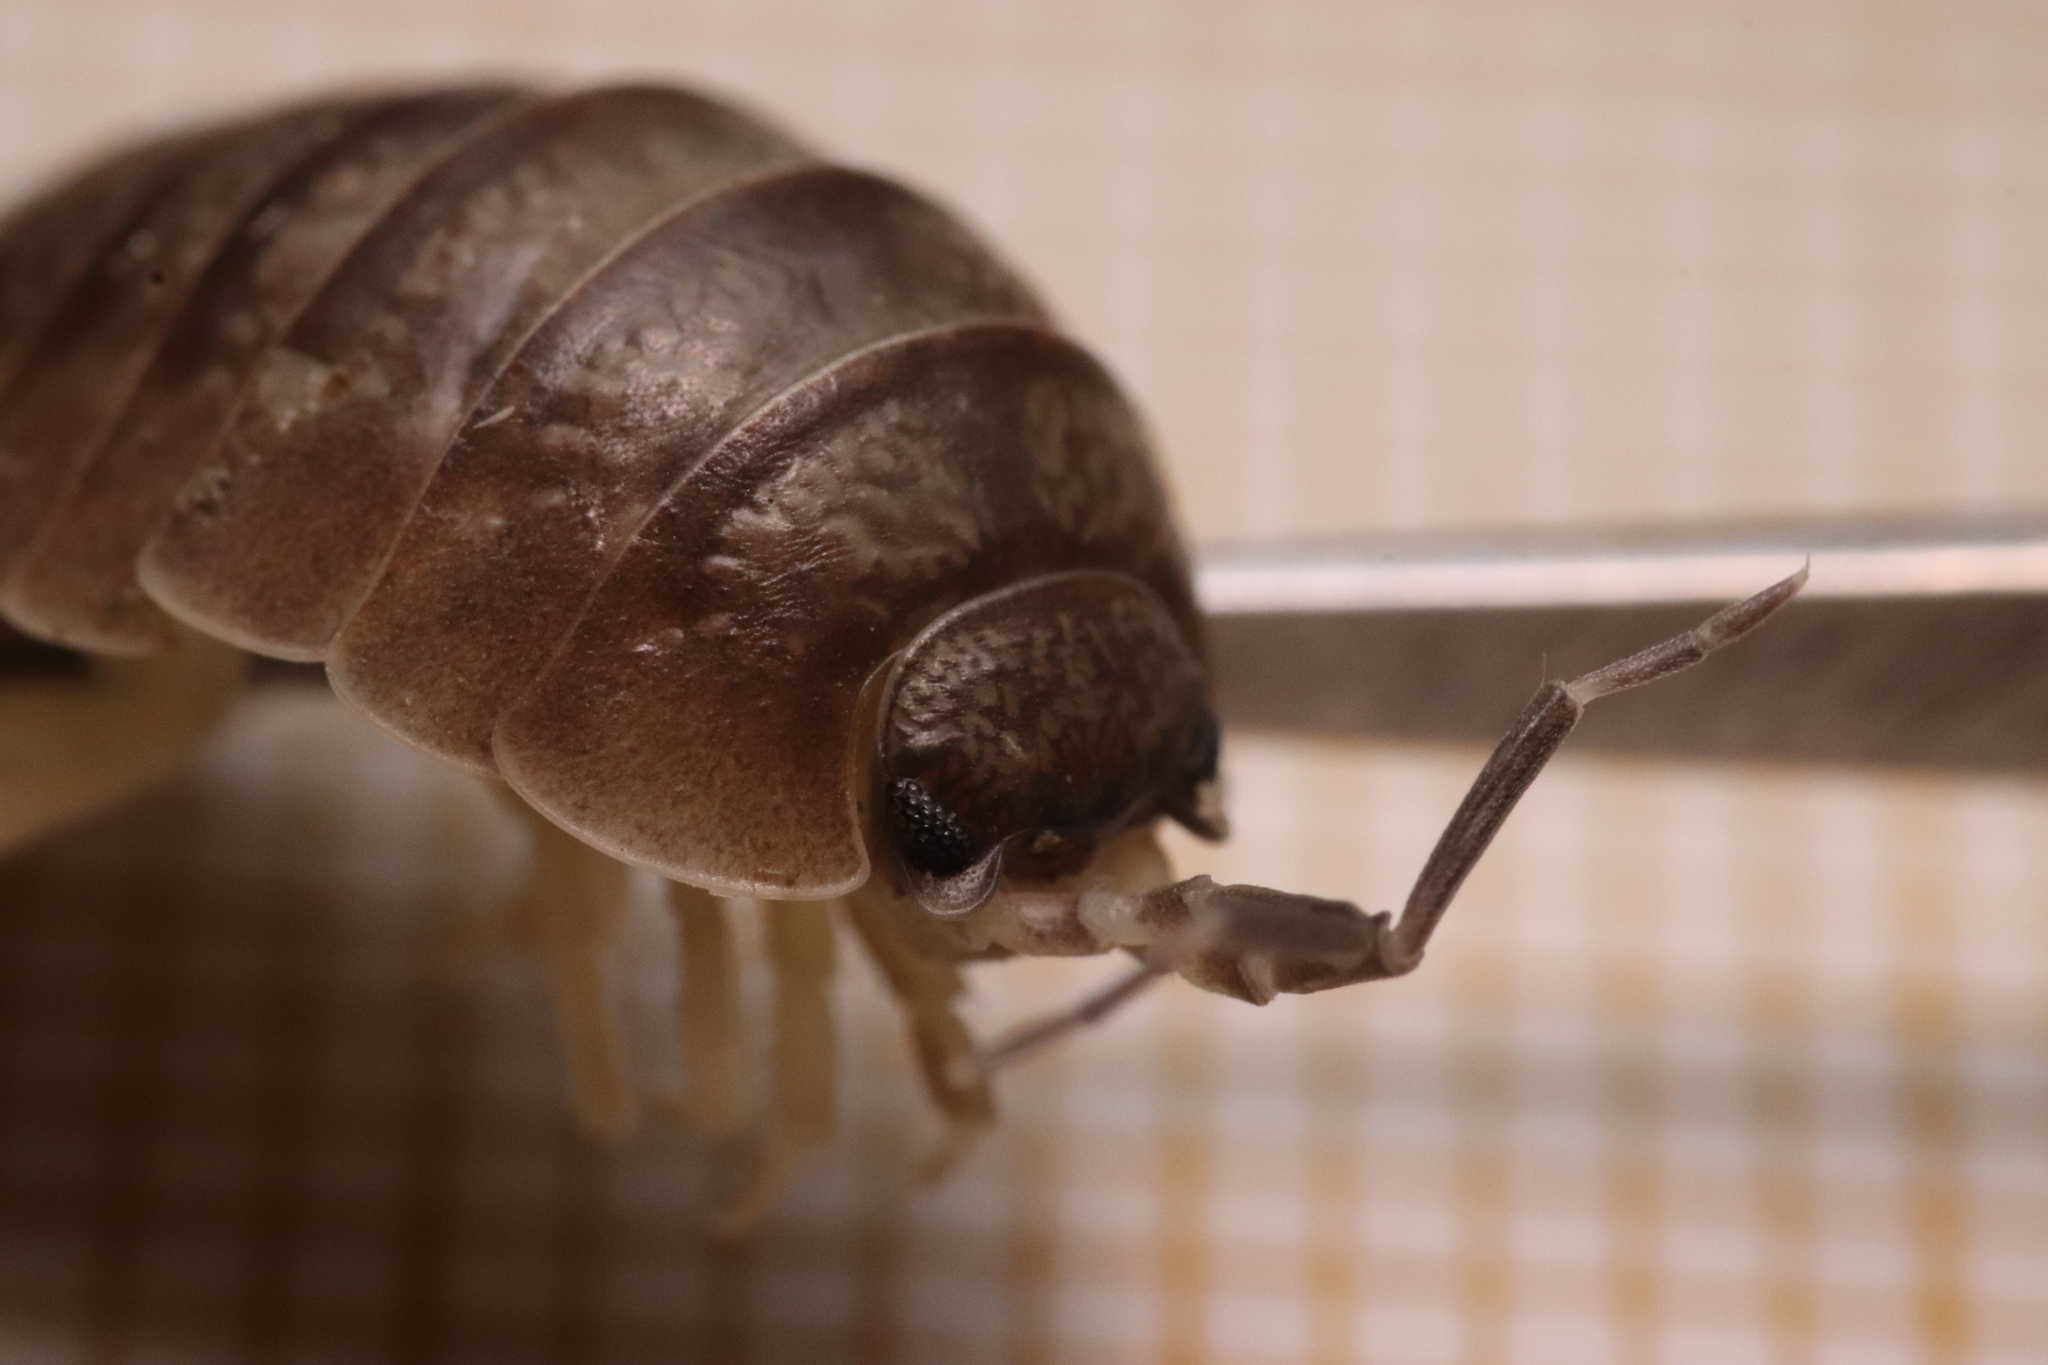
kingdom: Animalia
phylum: Arthropoda
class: Malacostraca
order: Isopoda
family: Porcellionidae
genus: Porcellio
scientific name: Porcellio laevis
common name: Swift woodlouse
